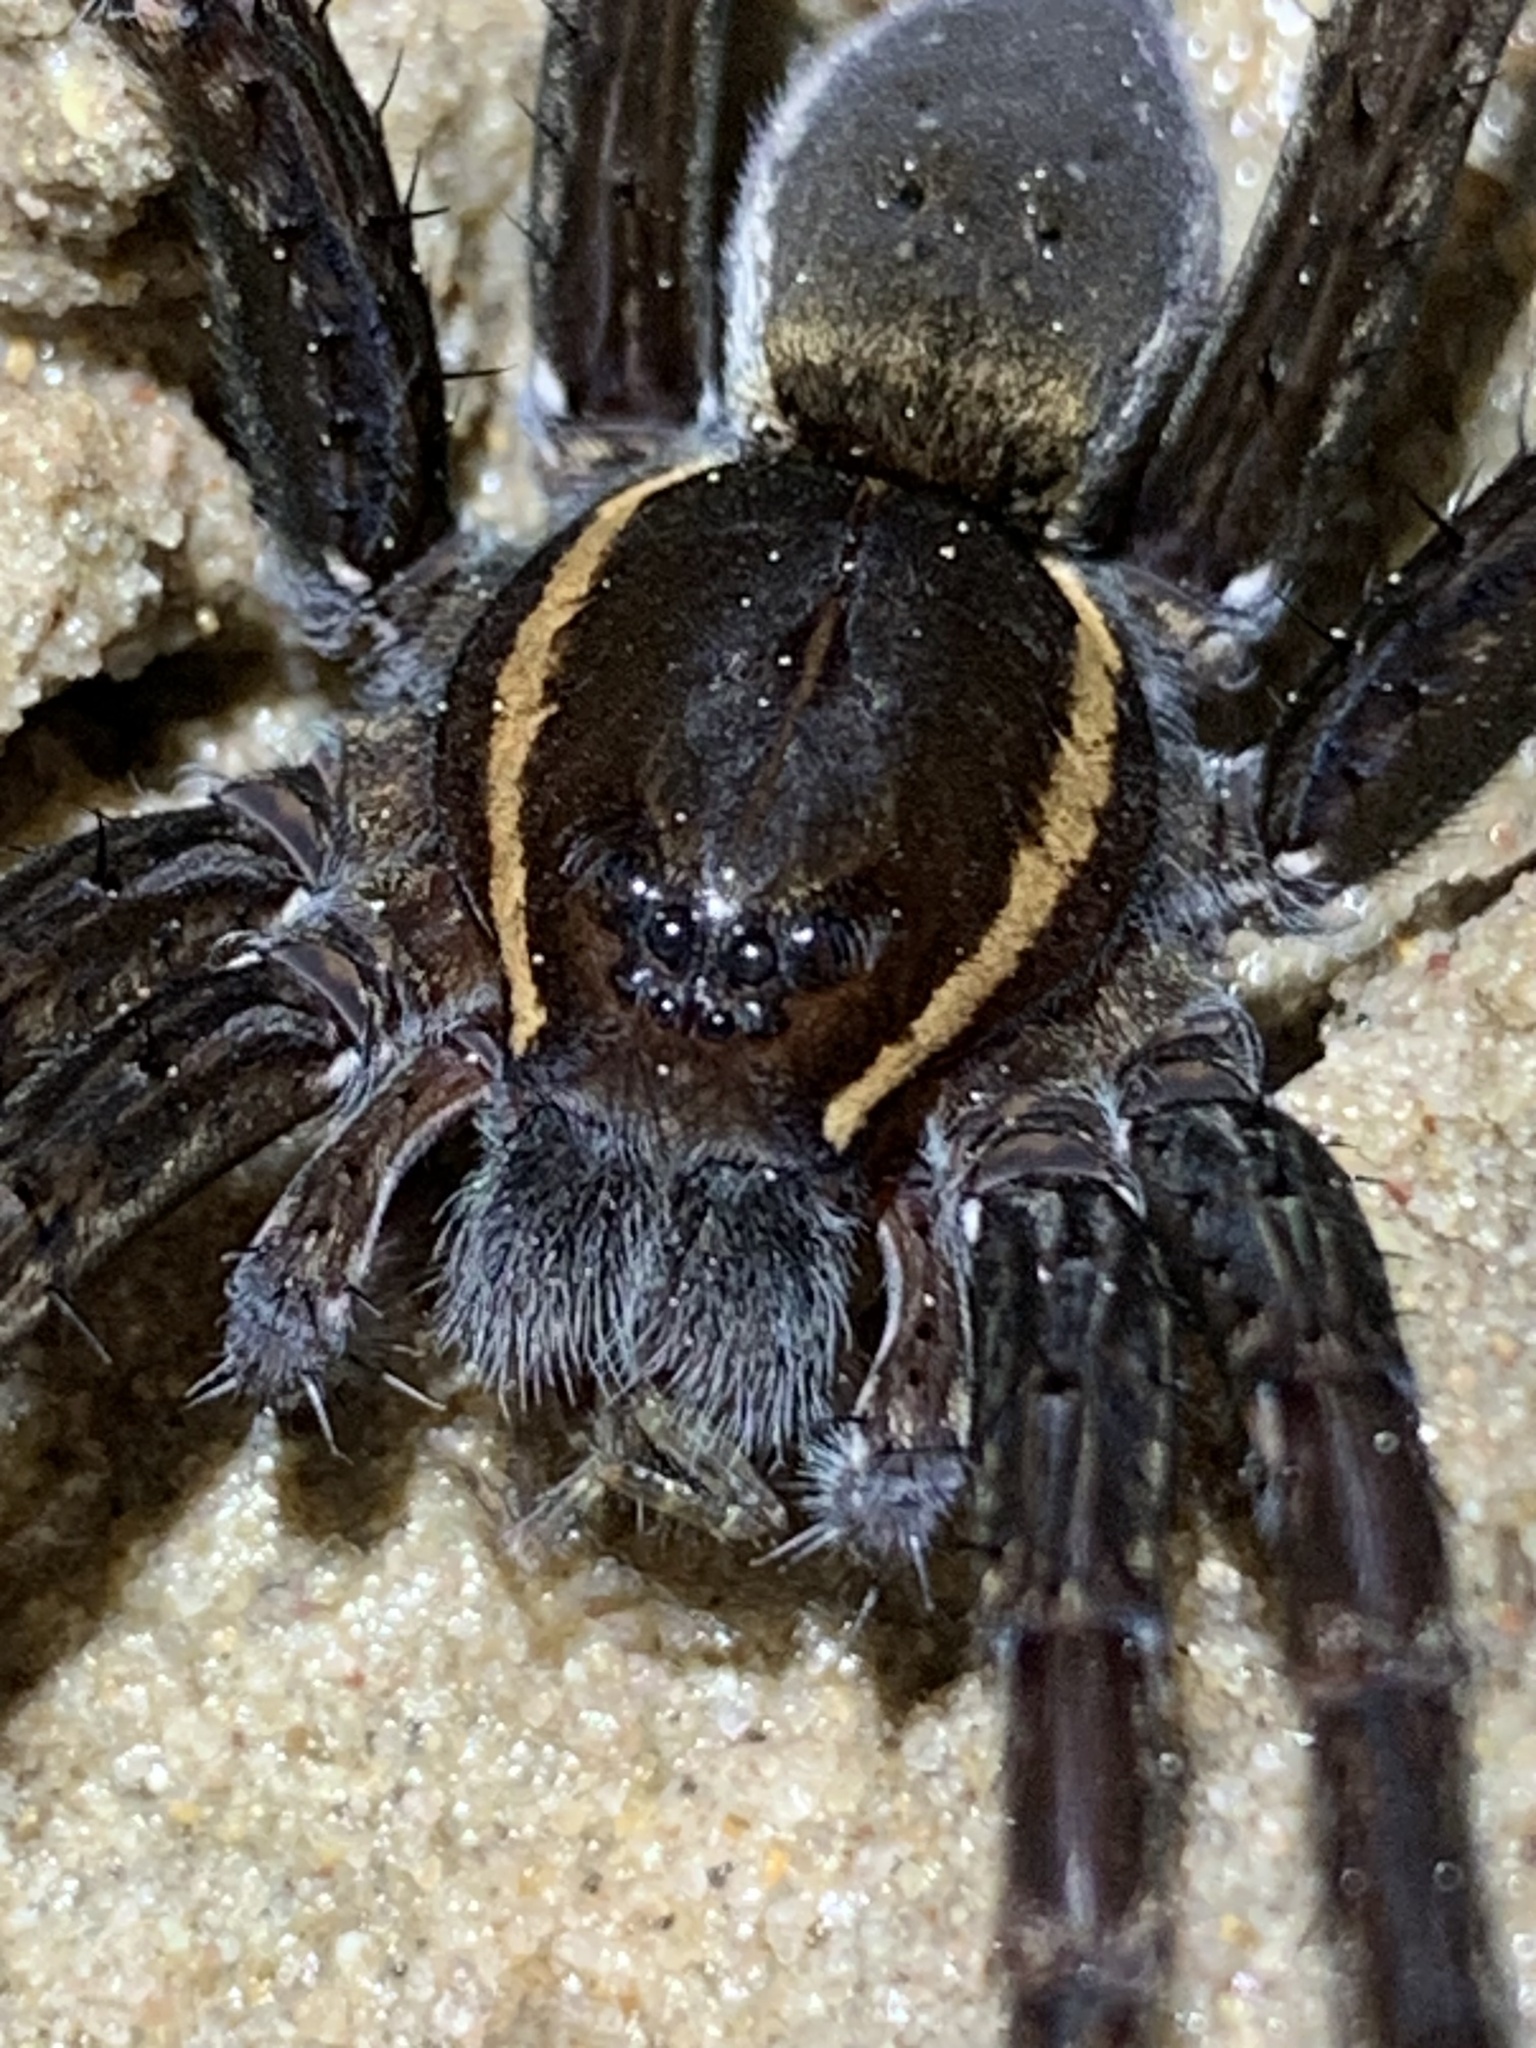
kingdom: Animalia
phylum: Arthropoda
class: Arachnida
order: Araneae
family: Pisauridae
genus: Dolomedes
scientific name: Dolomedes triton
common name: Six-spotted fishing spider
